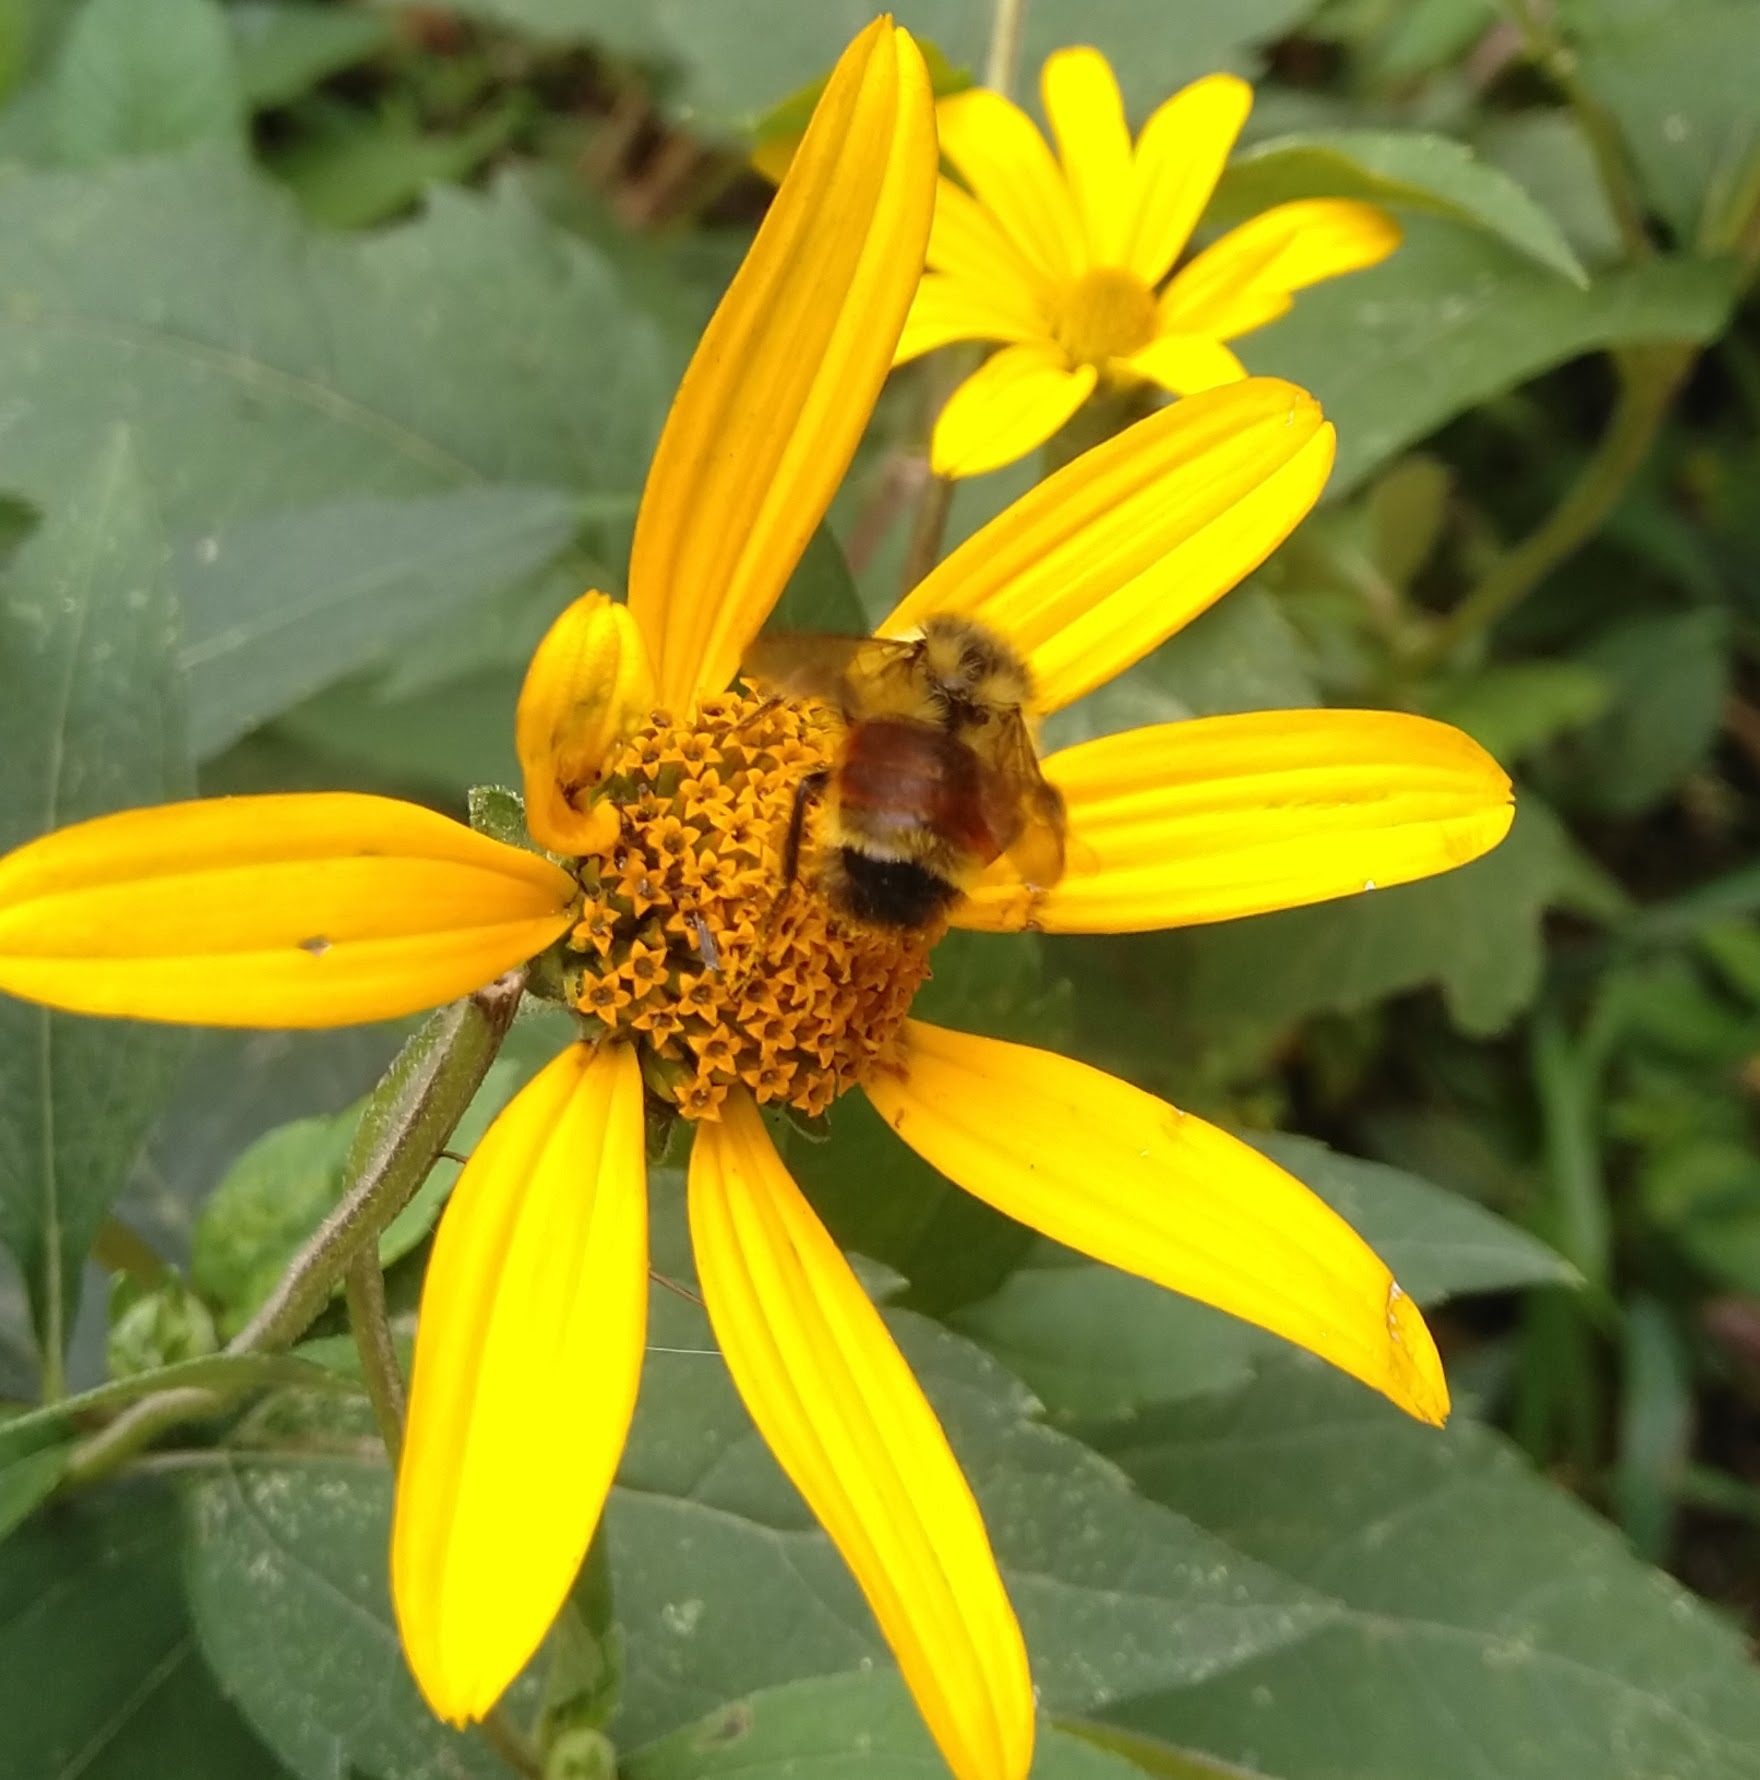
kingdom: Animalia
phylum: Arthropoda
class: Insecta
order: Hymenoptera
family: Apidae
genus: Bombus
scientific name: Bombus ternarius
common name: Tri-colored bumble bee
